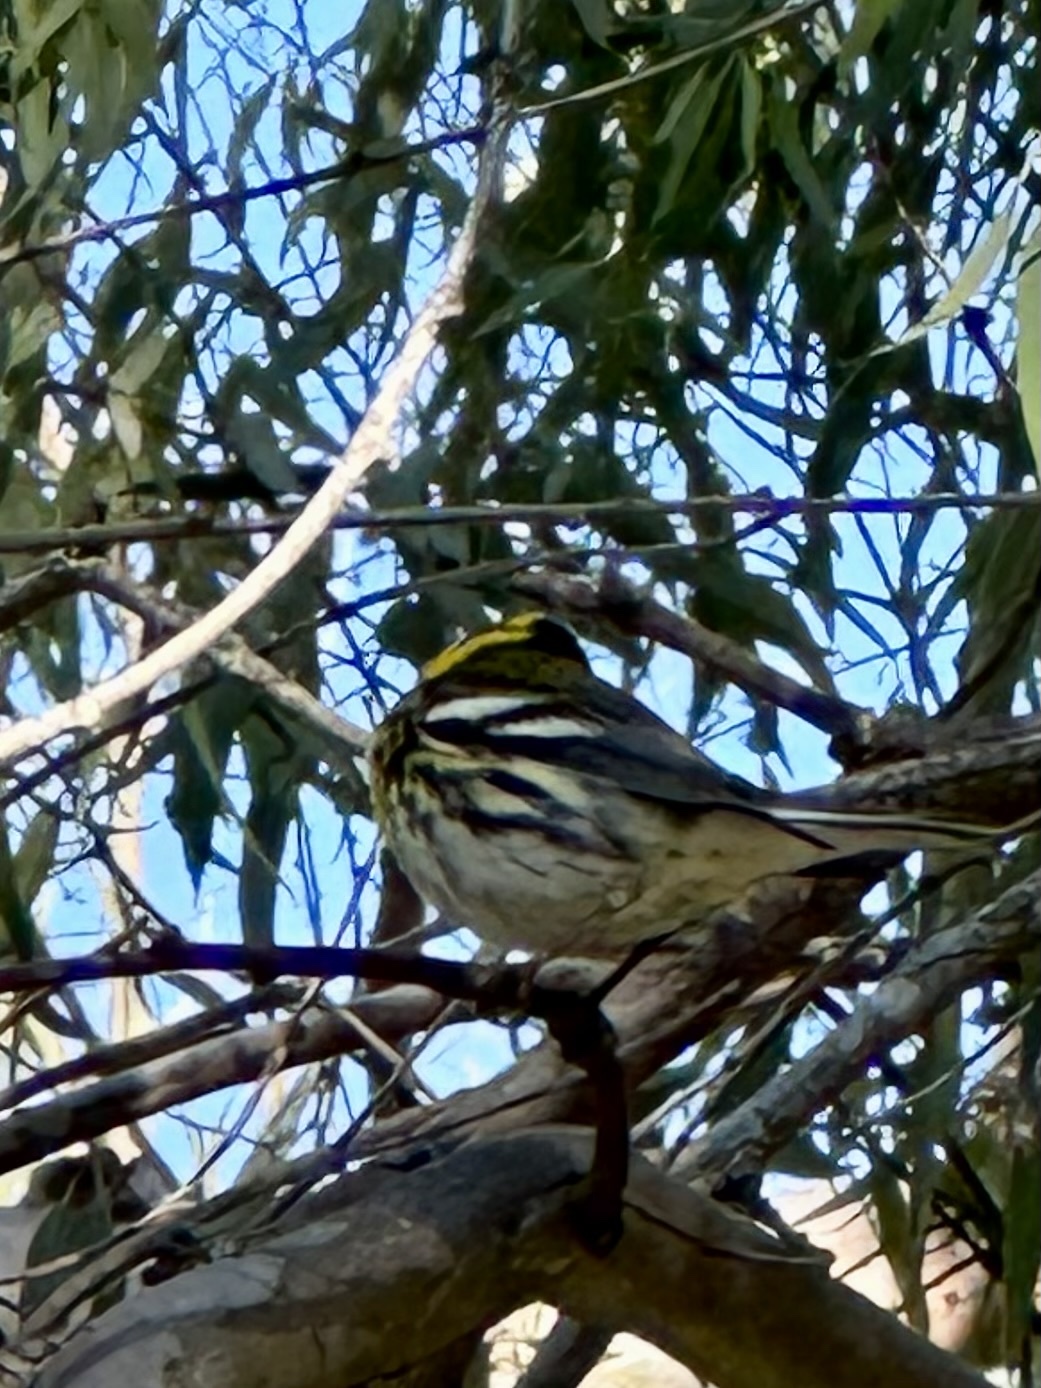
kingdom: Animalia
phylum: Chordata
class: Aves
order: Passeriformes
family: Parulidae
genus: Setophaga
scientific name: Setophaga townsendi
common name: Townsend's warbler
